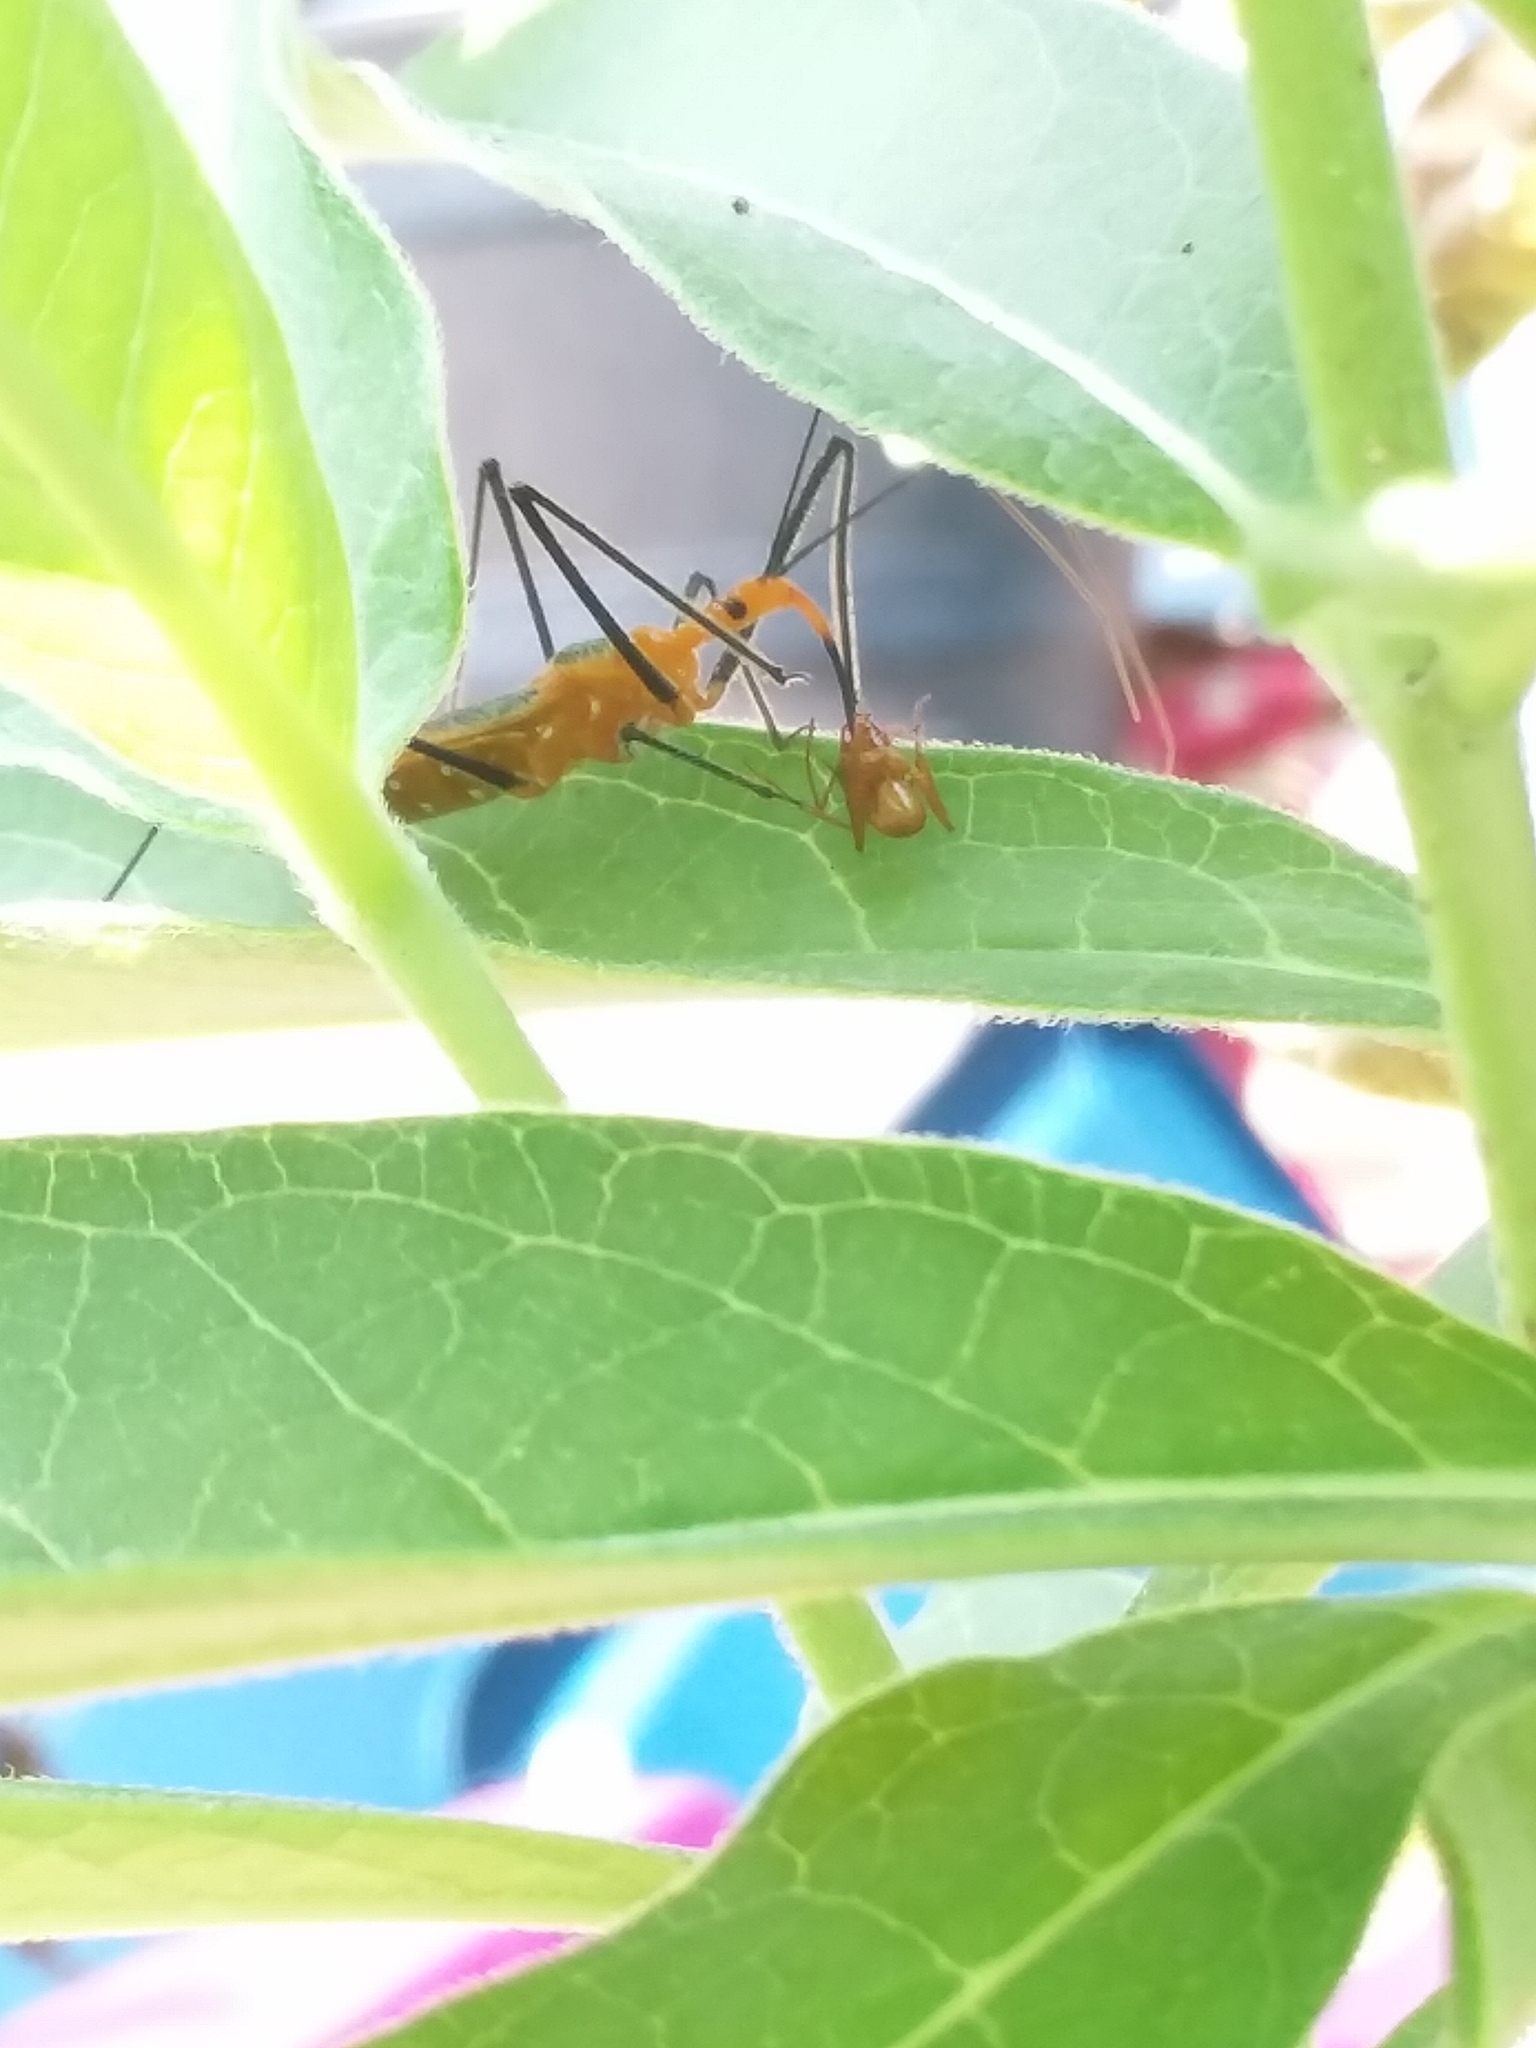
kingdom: Animalia
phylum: Arthropoda
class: Insecta
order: Hemiptera
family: Reduviidae
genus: Zelus
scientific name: Zelus longipes
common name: Milkweed assassin bug
